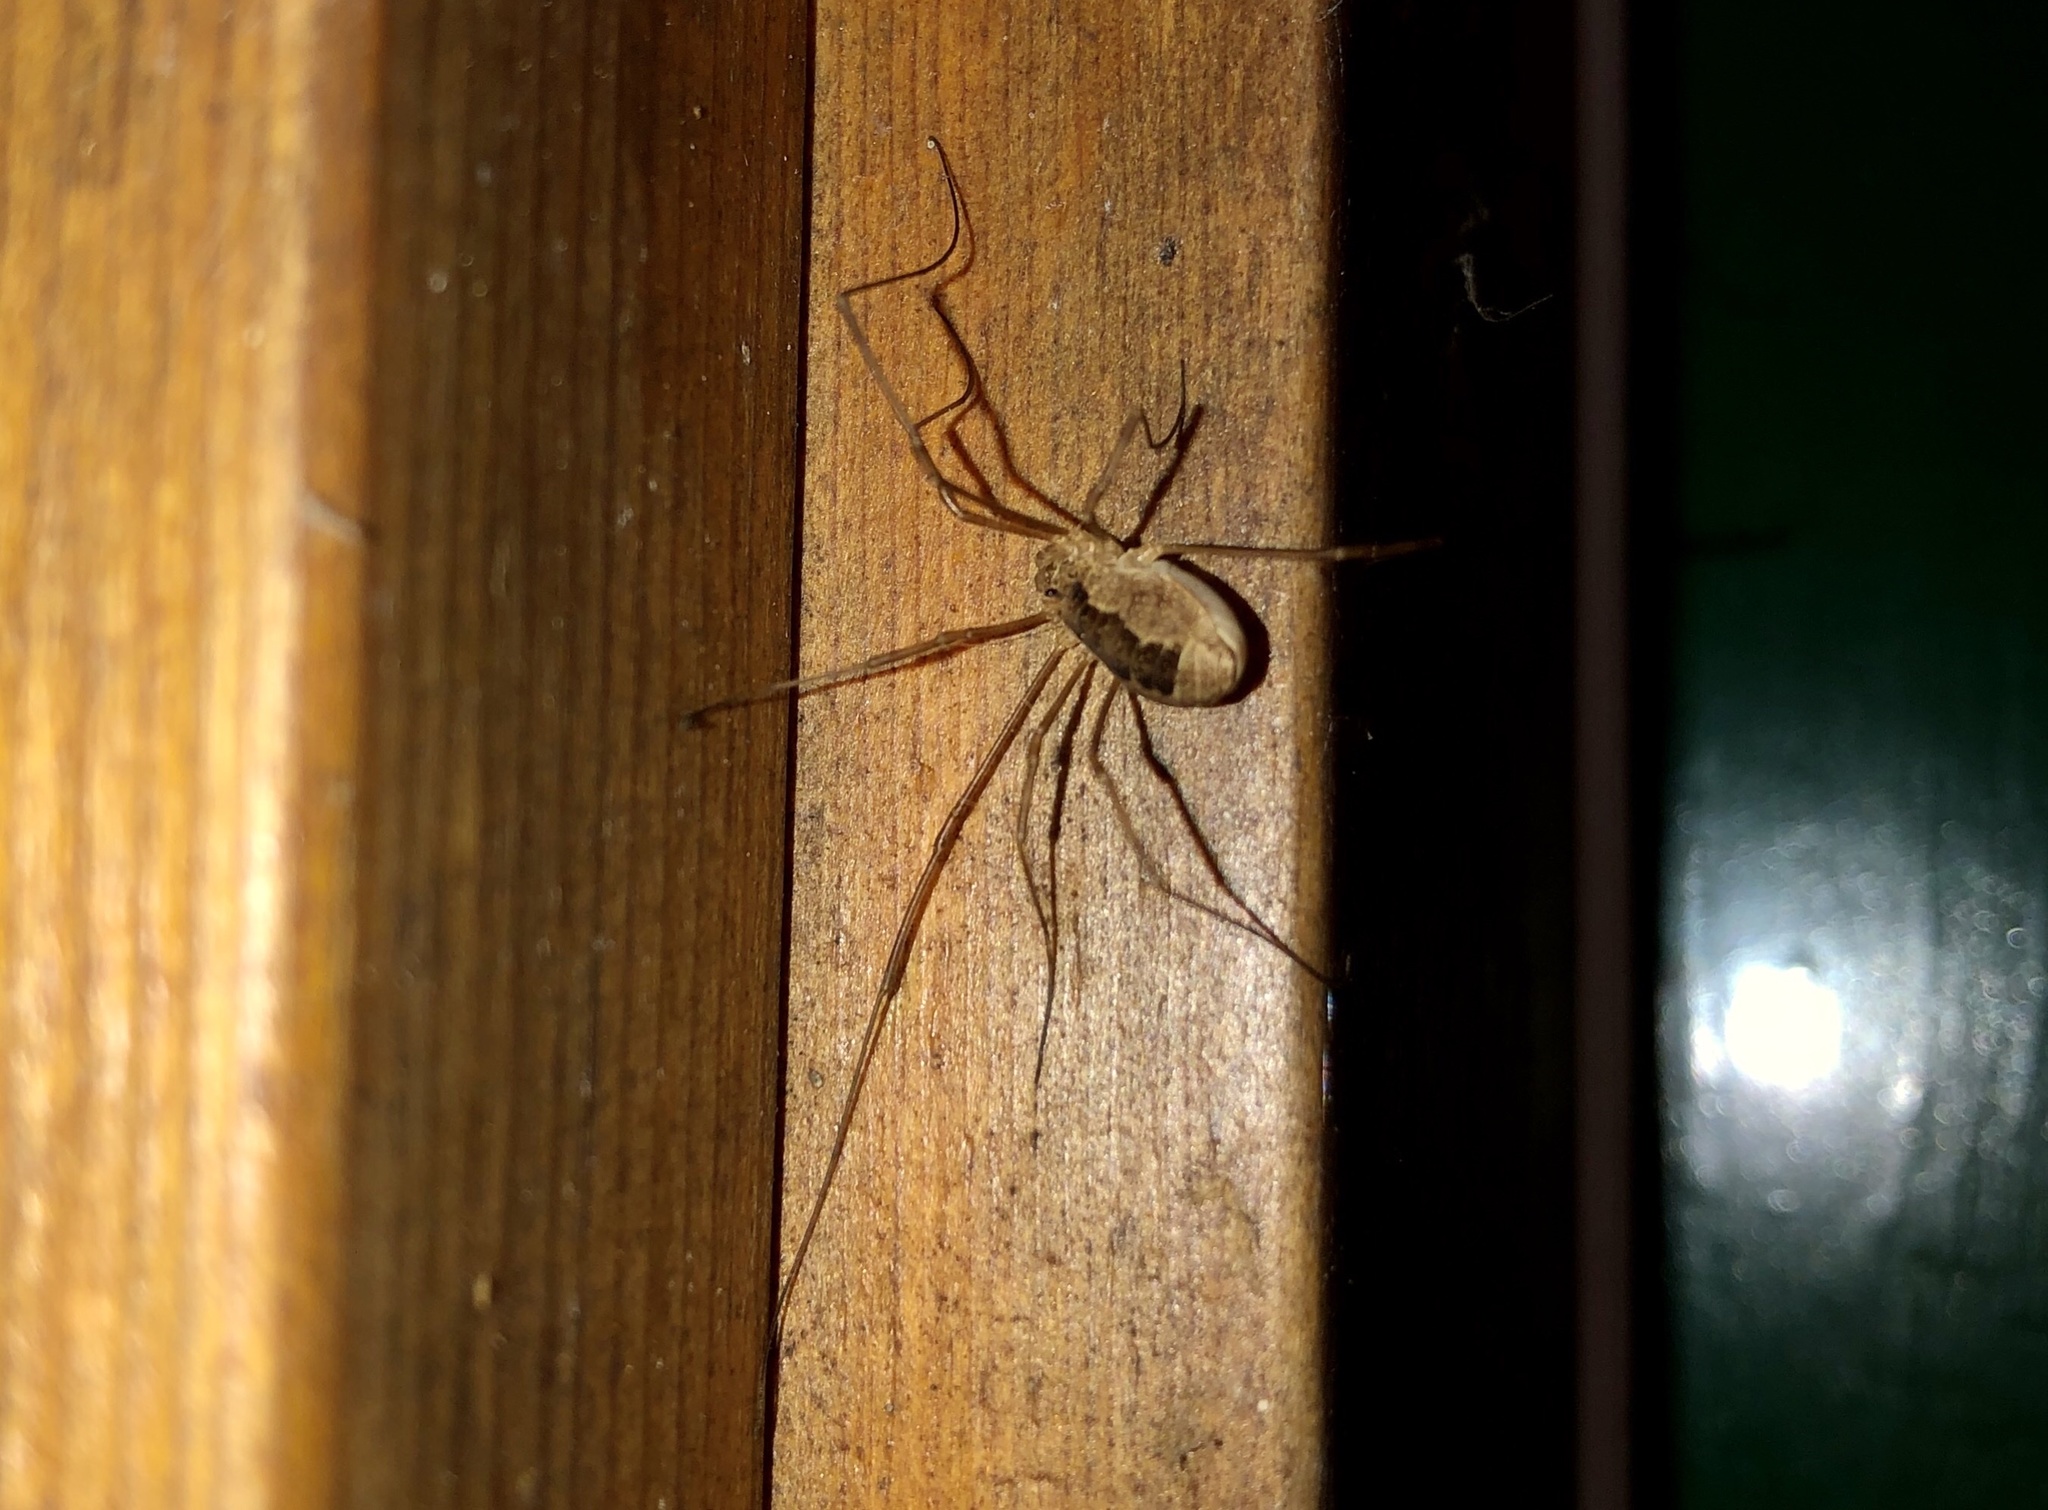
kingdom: Animalia
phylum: Arthropoda
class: Arachnida
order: Opiliones
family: Phalangiidae
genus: Rilaena
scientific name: Rilaena triangularis
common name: Spring harvestman
